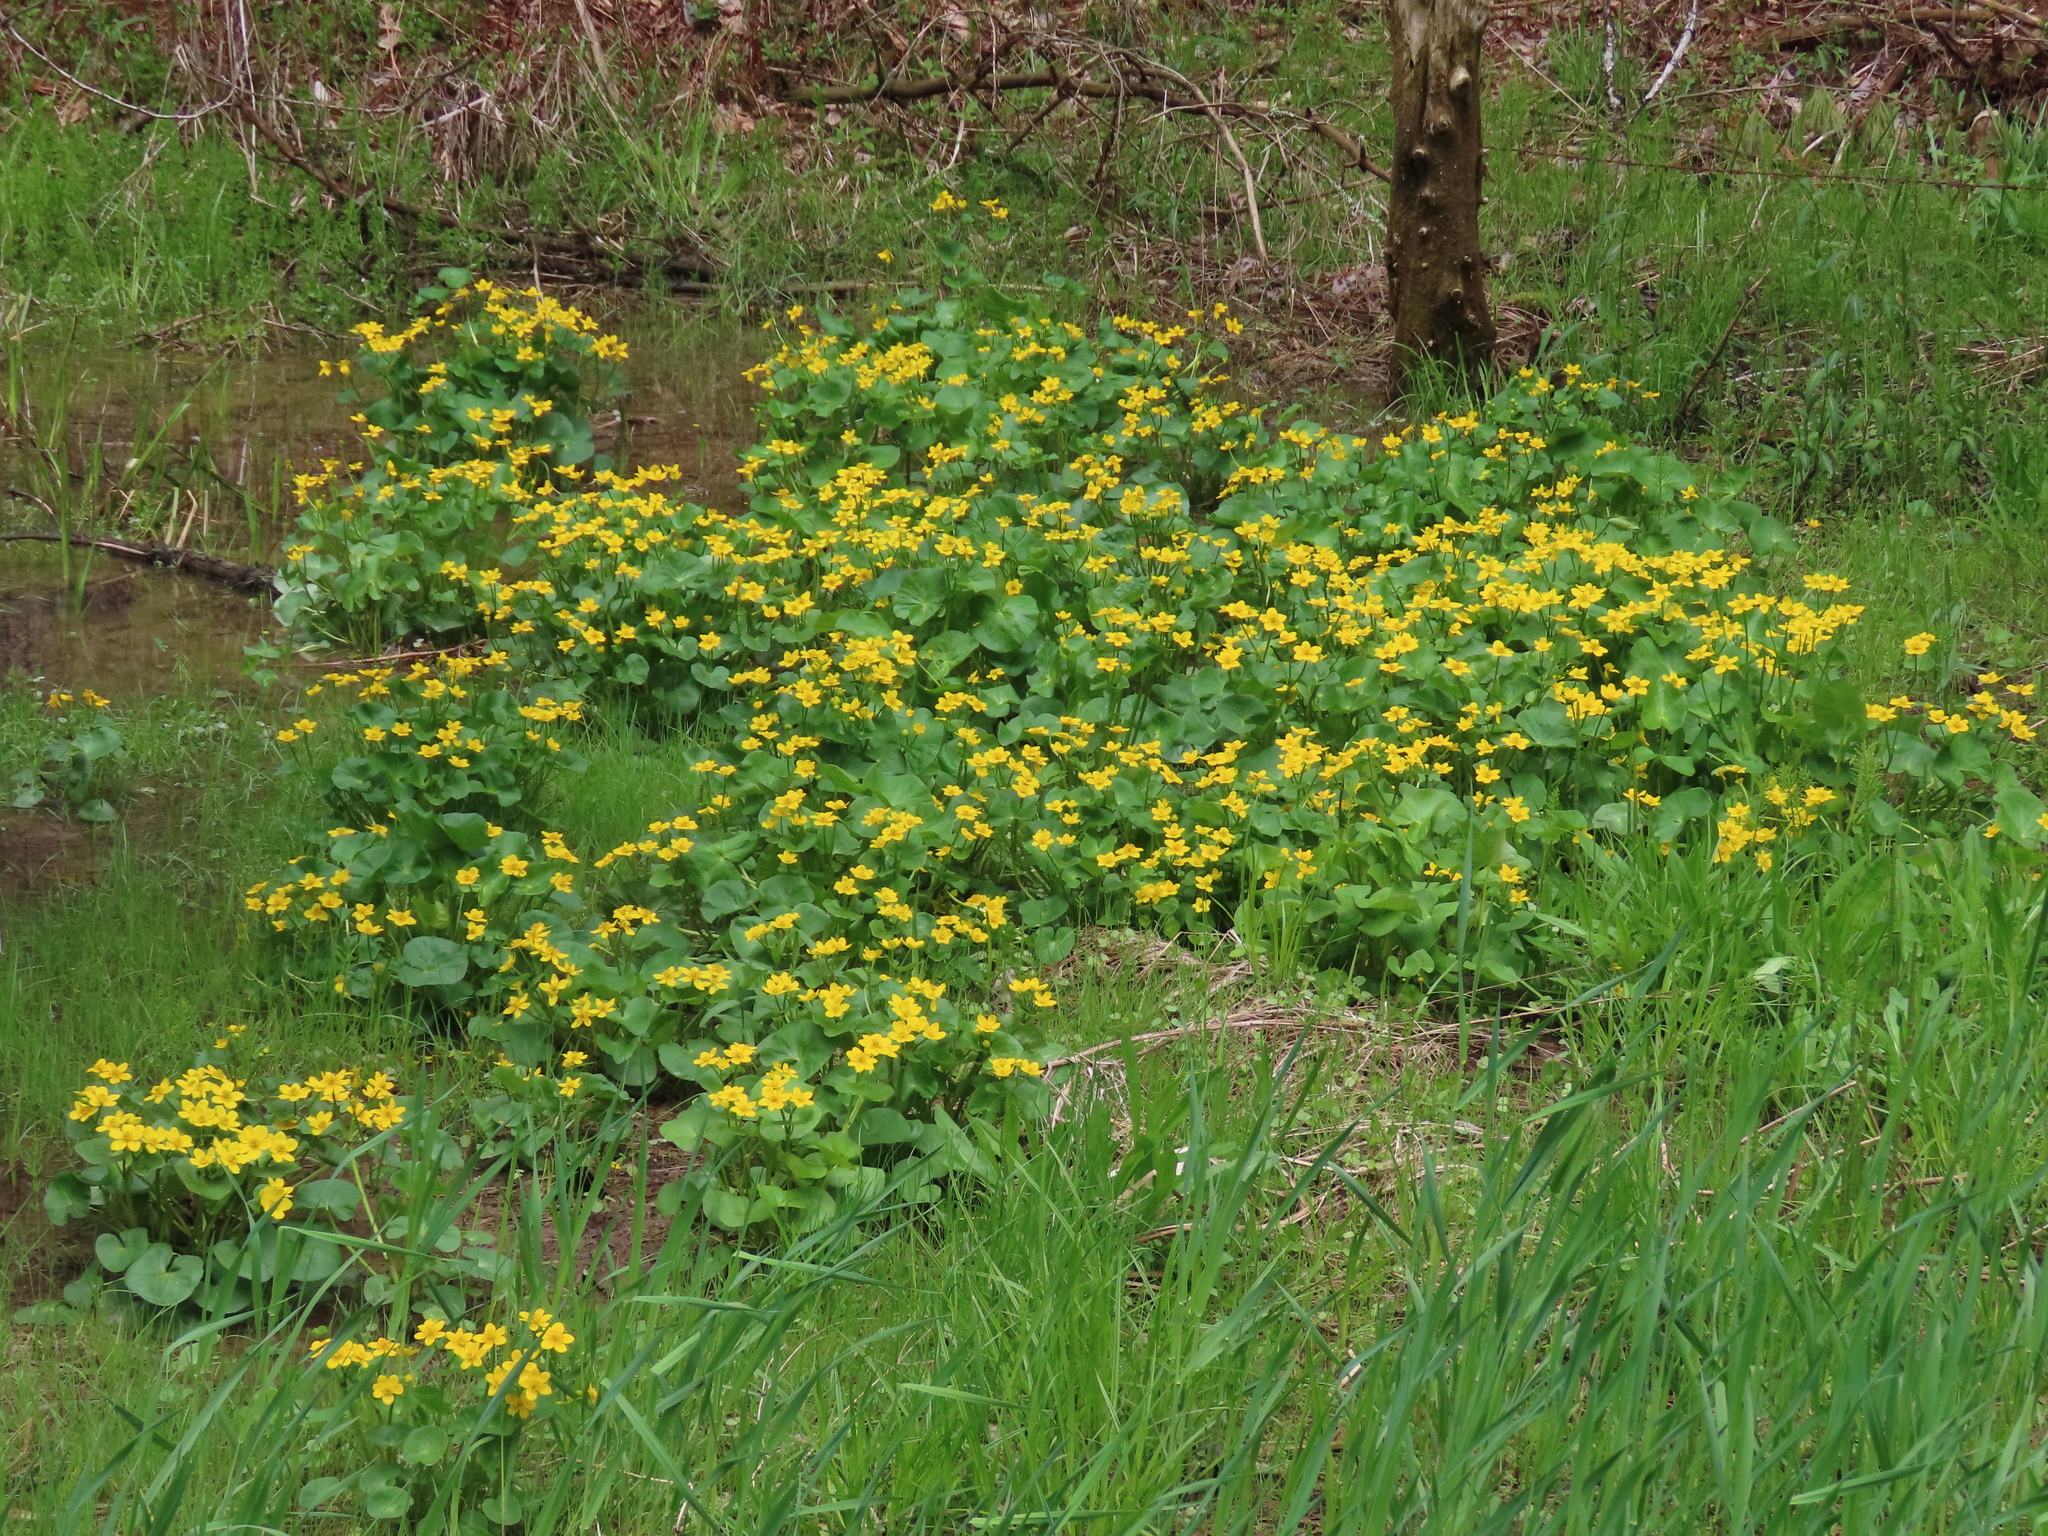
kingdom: Plantae
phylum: Tracheophyta
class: Magnoliopsida
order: Ranunculales
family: Ranunculaceae
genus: Caltha
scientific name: Caltha palustris
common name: Marsh marigold
